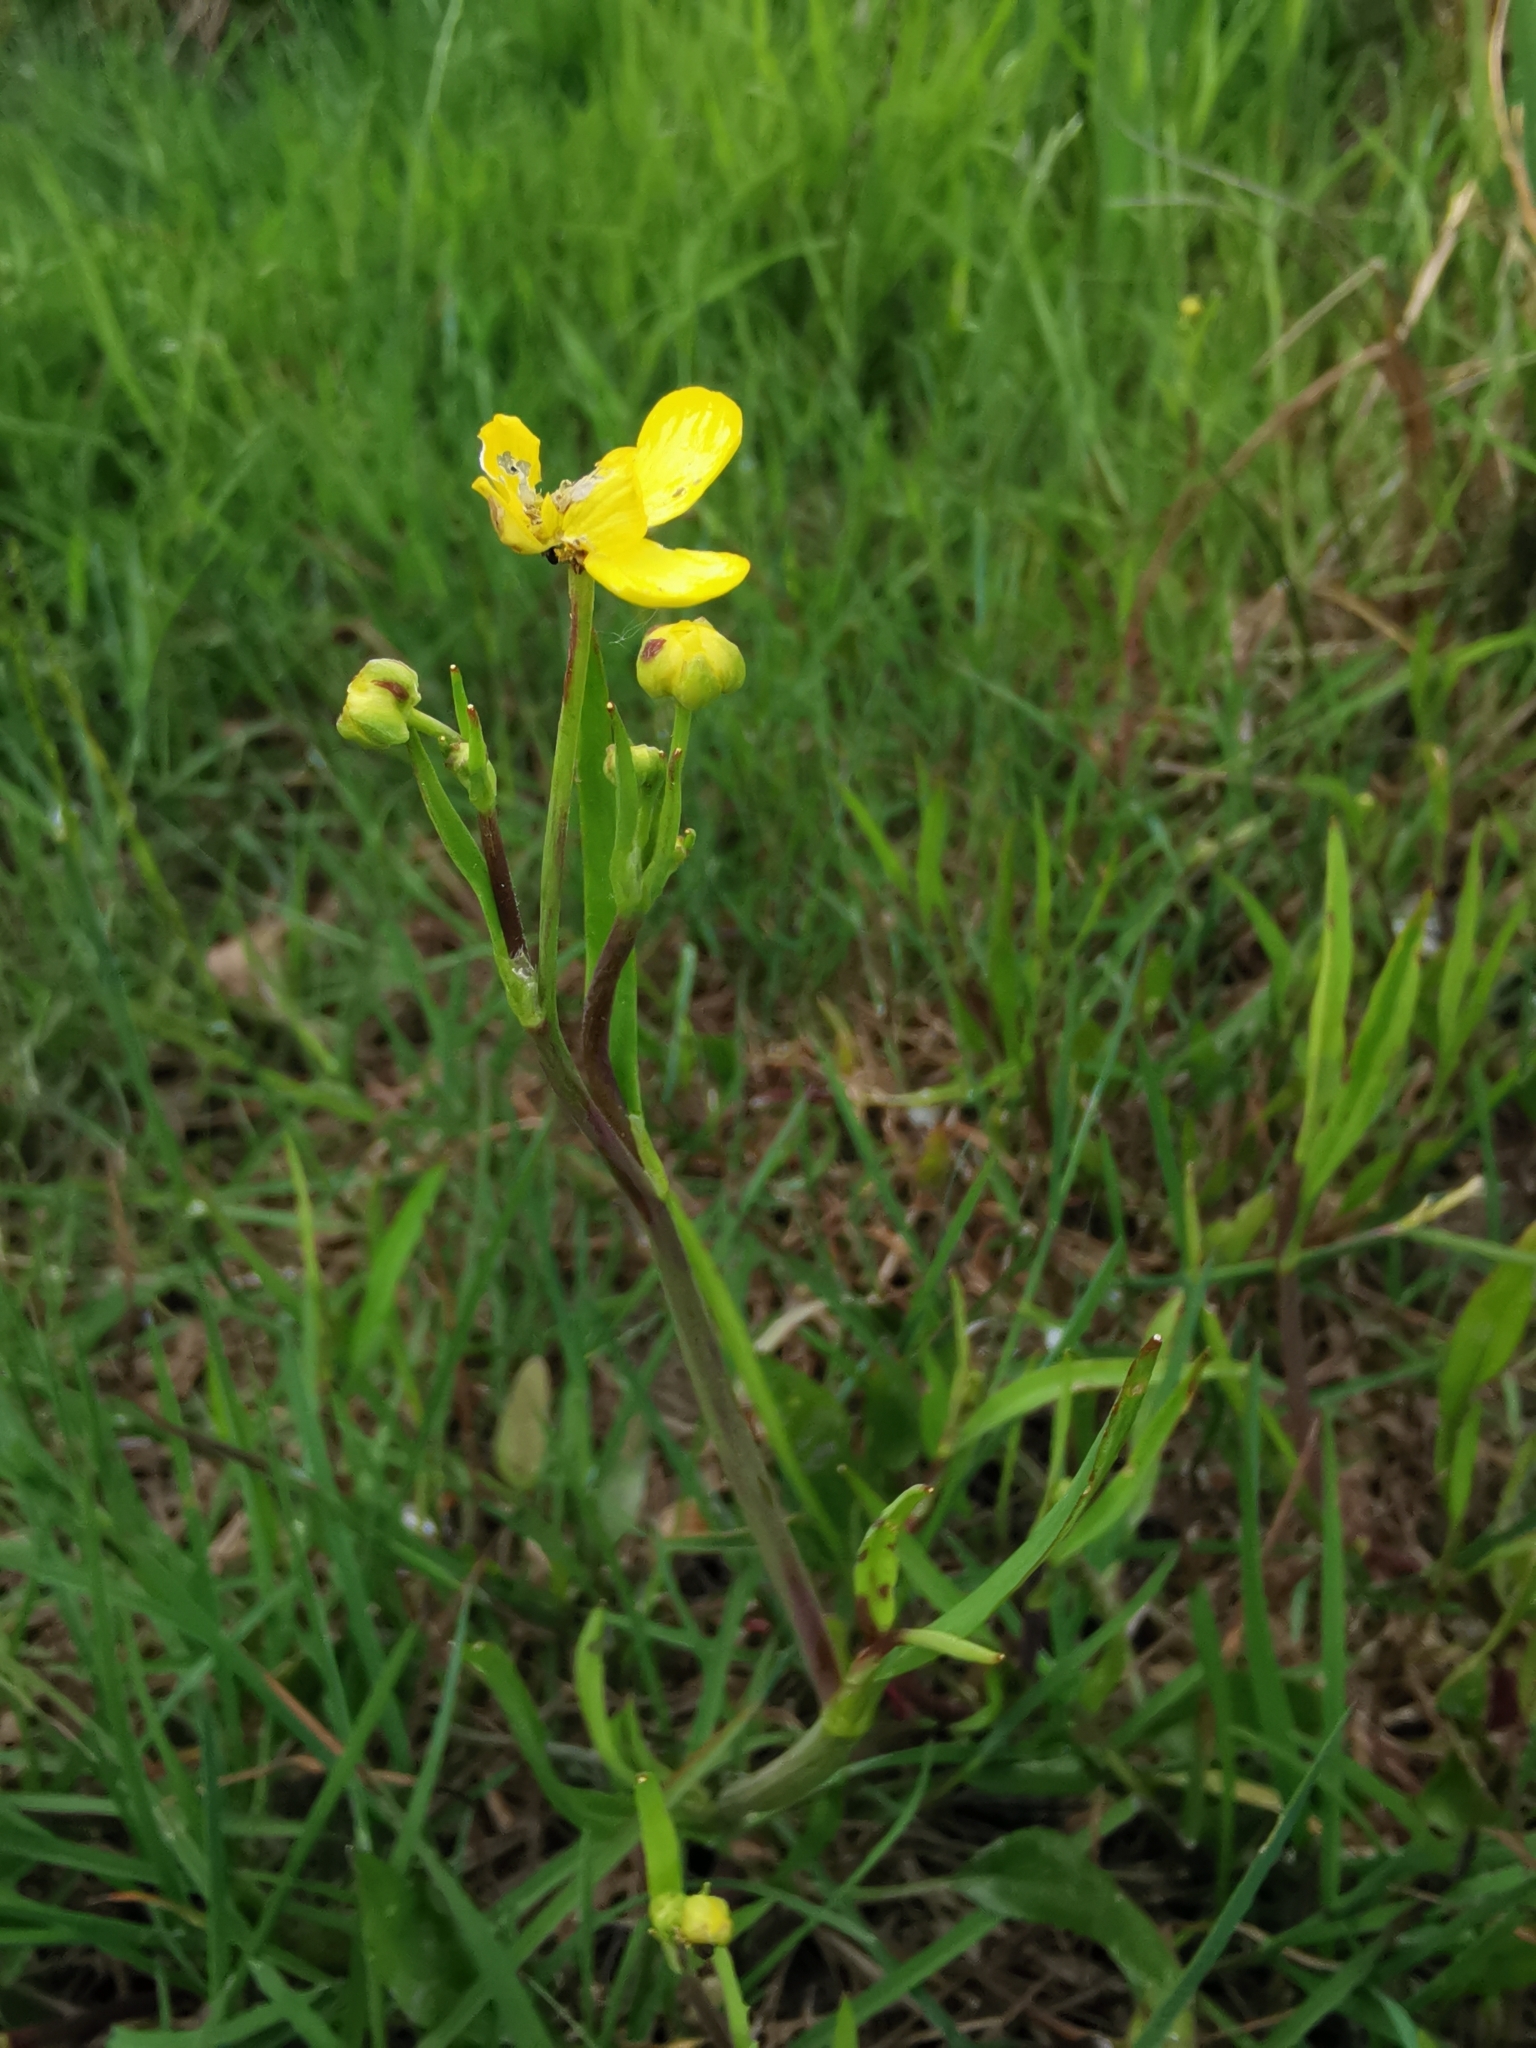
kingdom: Plantae
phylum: Tracheophyta
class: Magnoliopsida
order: Ranunculales
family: Ranunculaceae
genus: Ranunculus
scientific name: Ranunculus flammula
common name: Lesser spearwort
